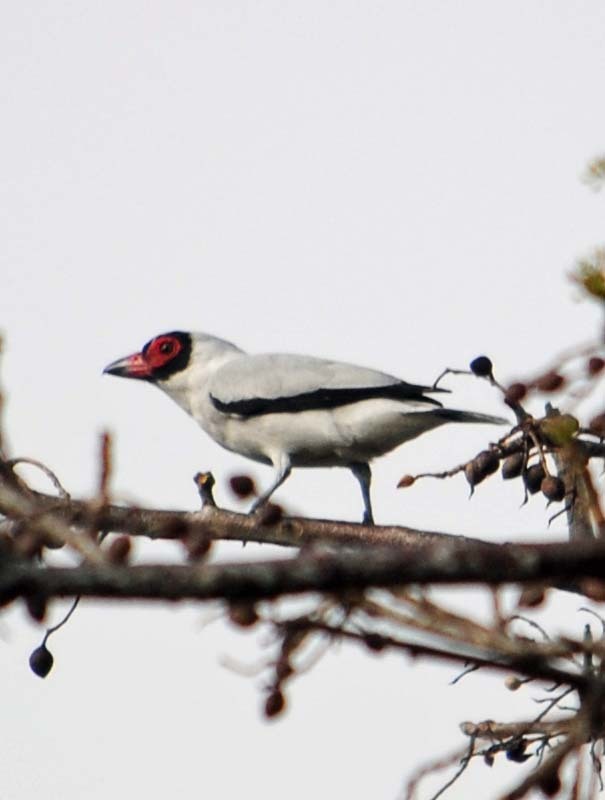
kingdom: Animalia
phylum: Chordata
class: Aves
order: Passeriformes
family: Cotingidae
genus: Tityra
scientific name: Tityra semifasciata
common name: Masked tityra
